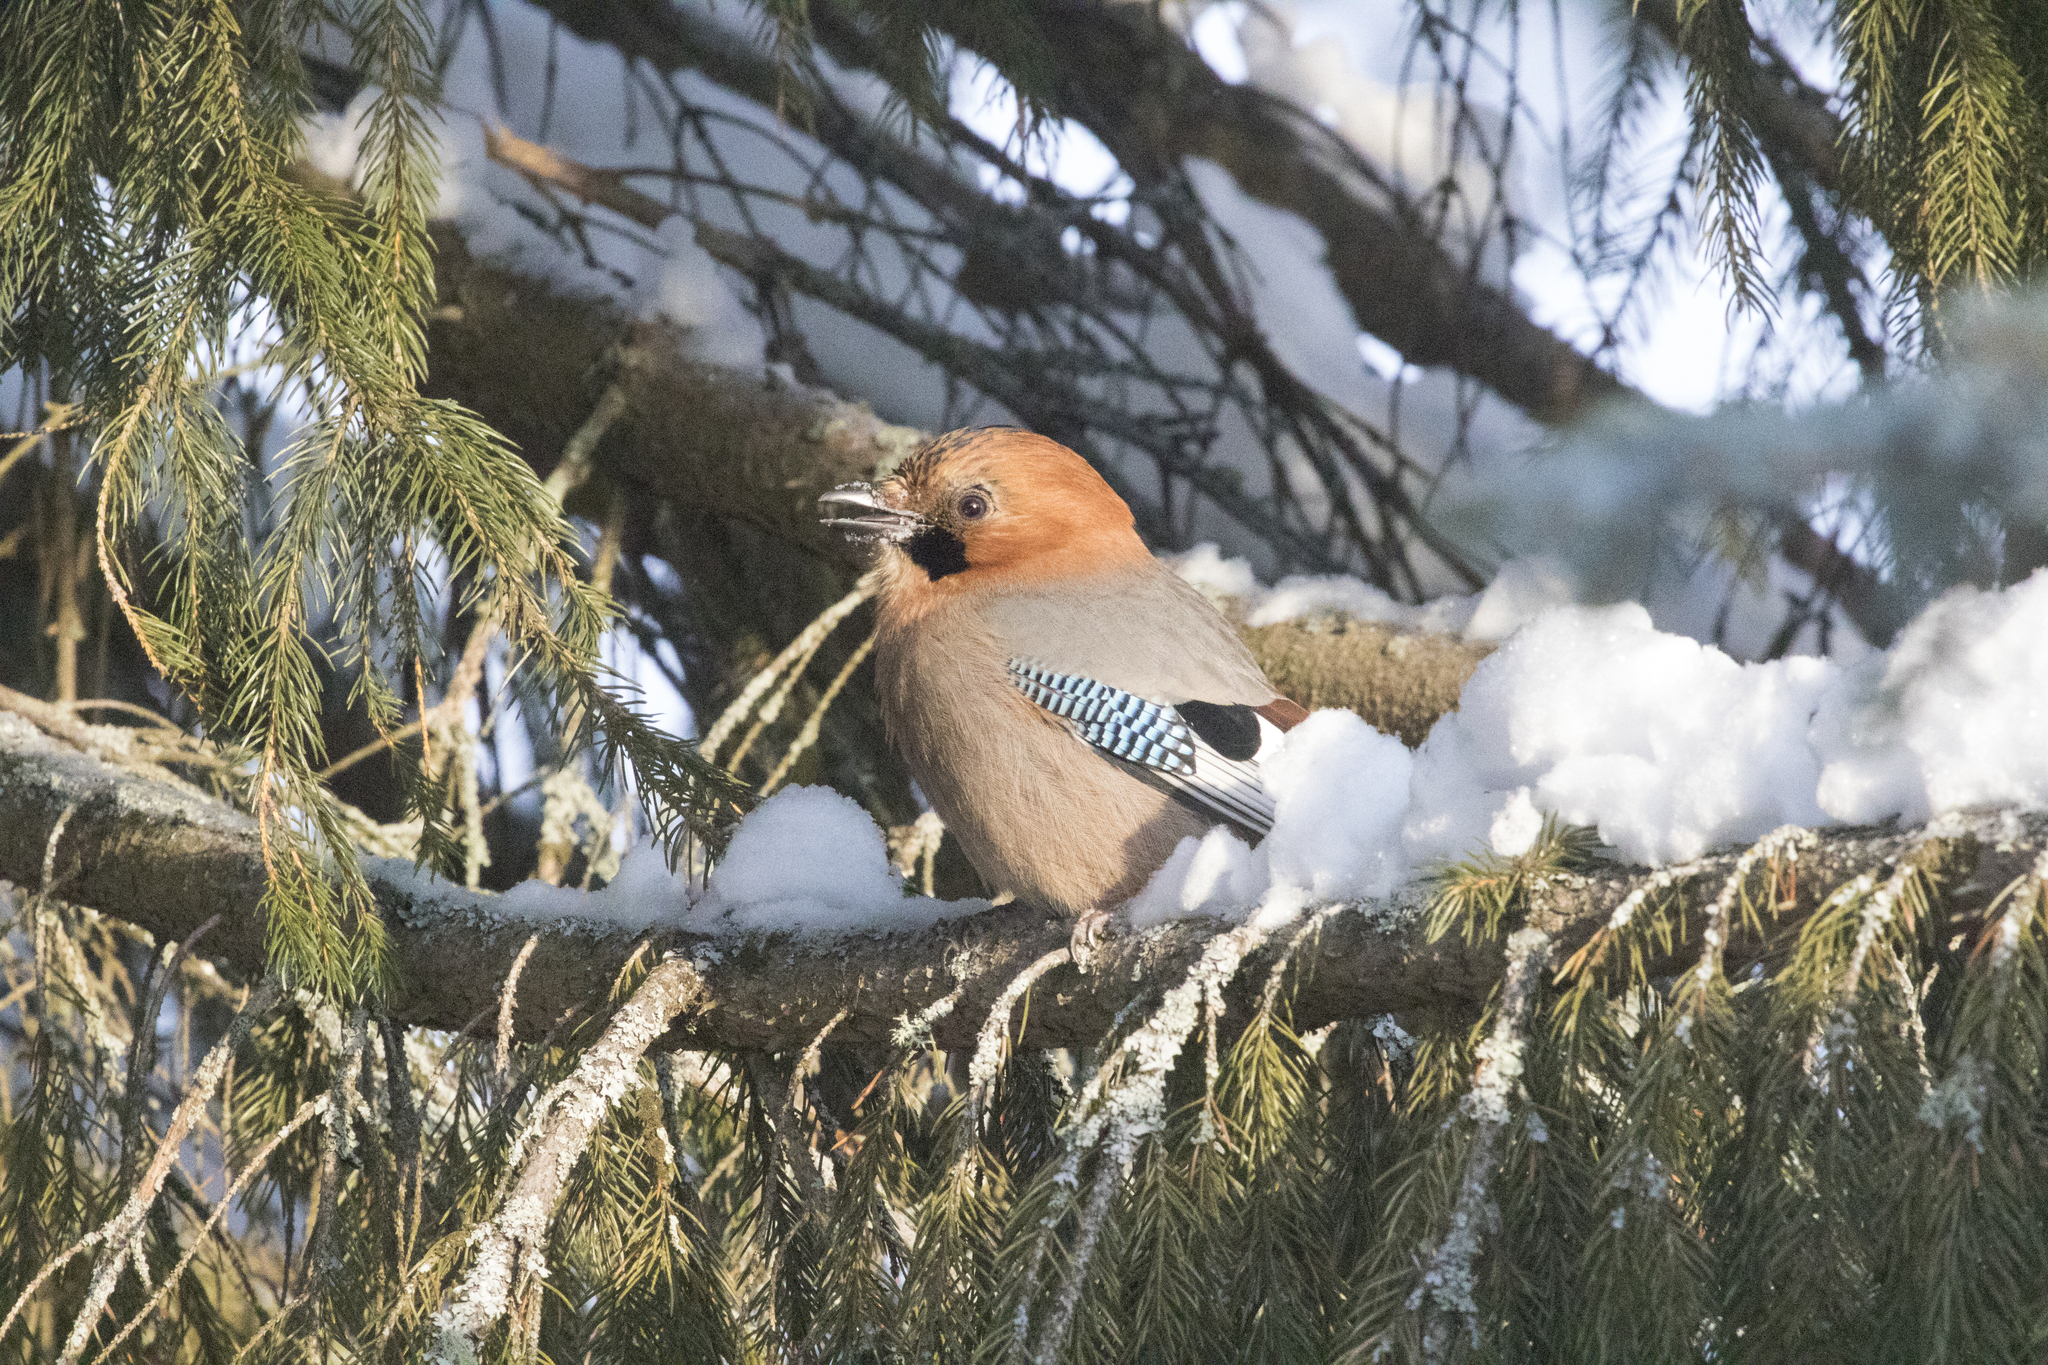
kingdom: Animalia
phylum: Chordata
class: Aves
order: Passeriformes
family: Corvidae
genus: Garrulus
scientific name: Garrulus glandarius
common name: Eurasian jay
